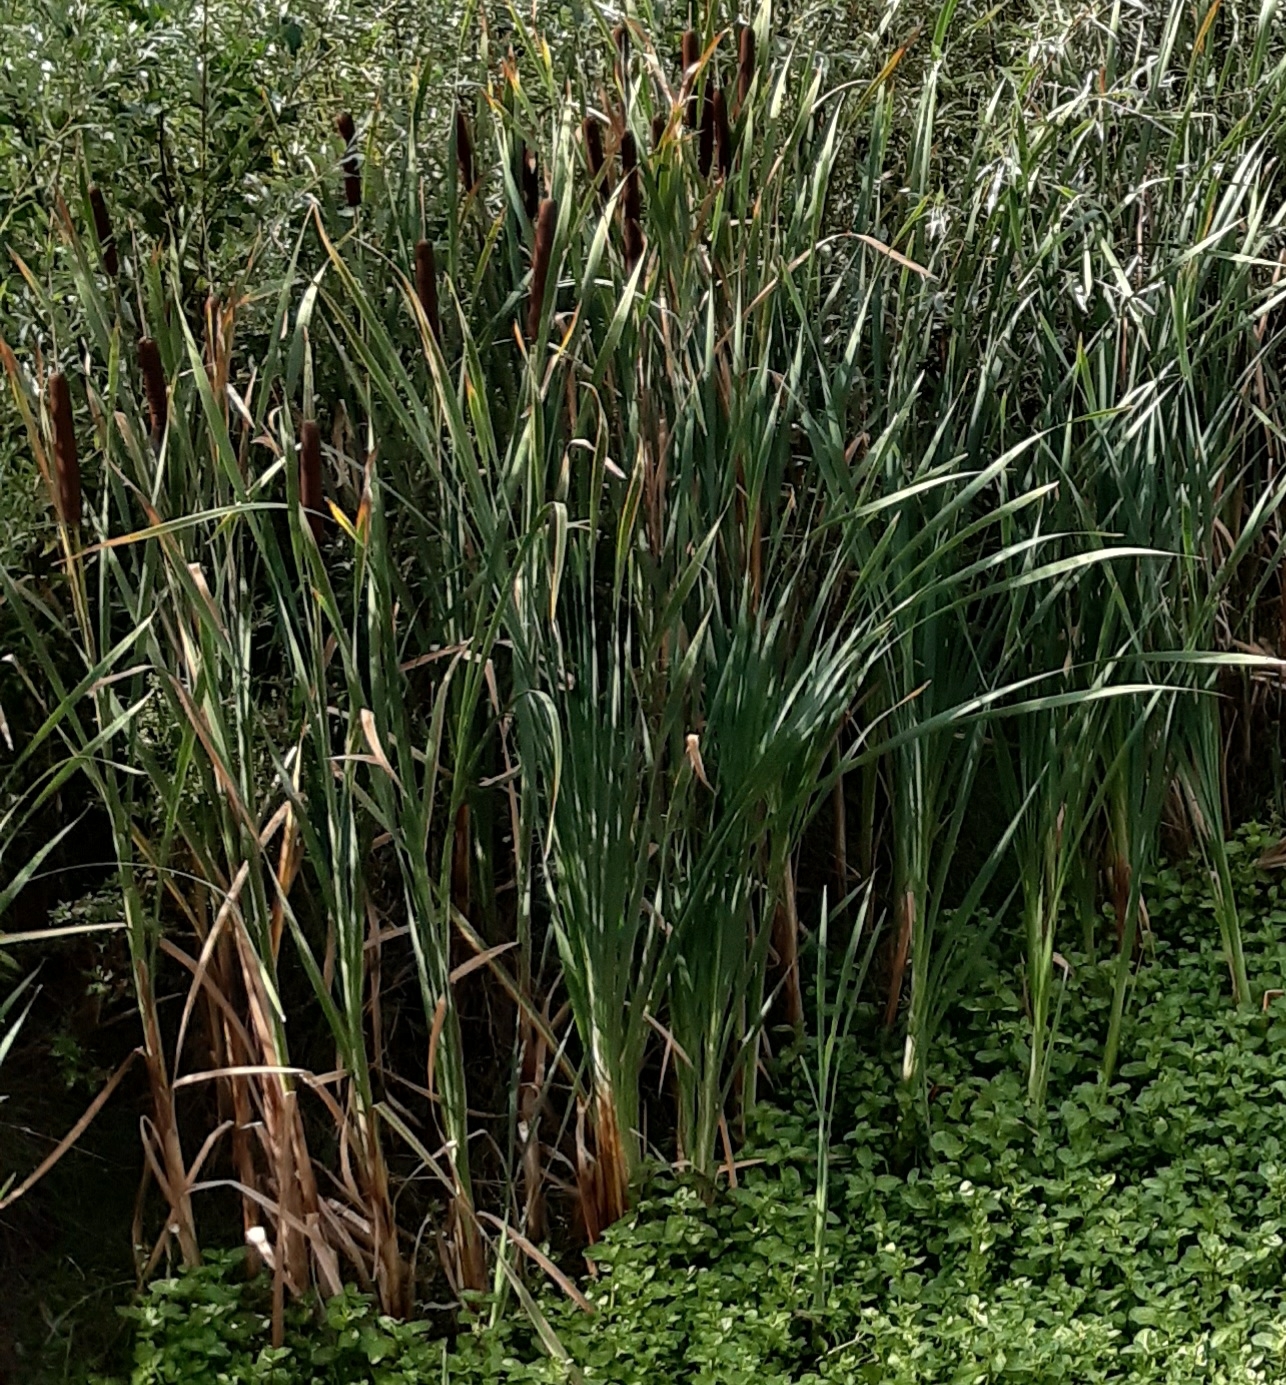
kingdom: Plantae
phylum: Tracheophyta
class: Liliopsida
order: Poales
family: Typhaceae
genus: Typha
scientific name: Typha latifolia
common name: Broadleaf cattail
